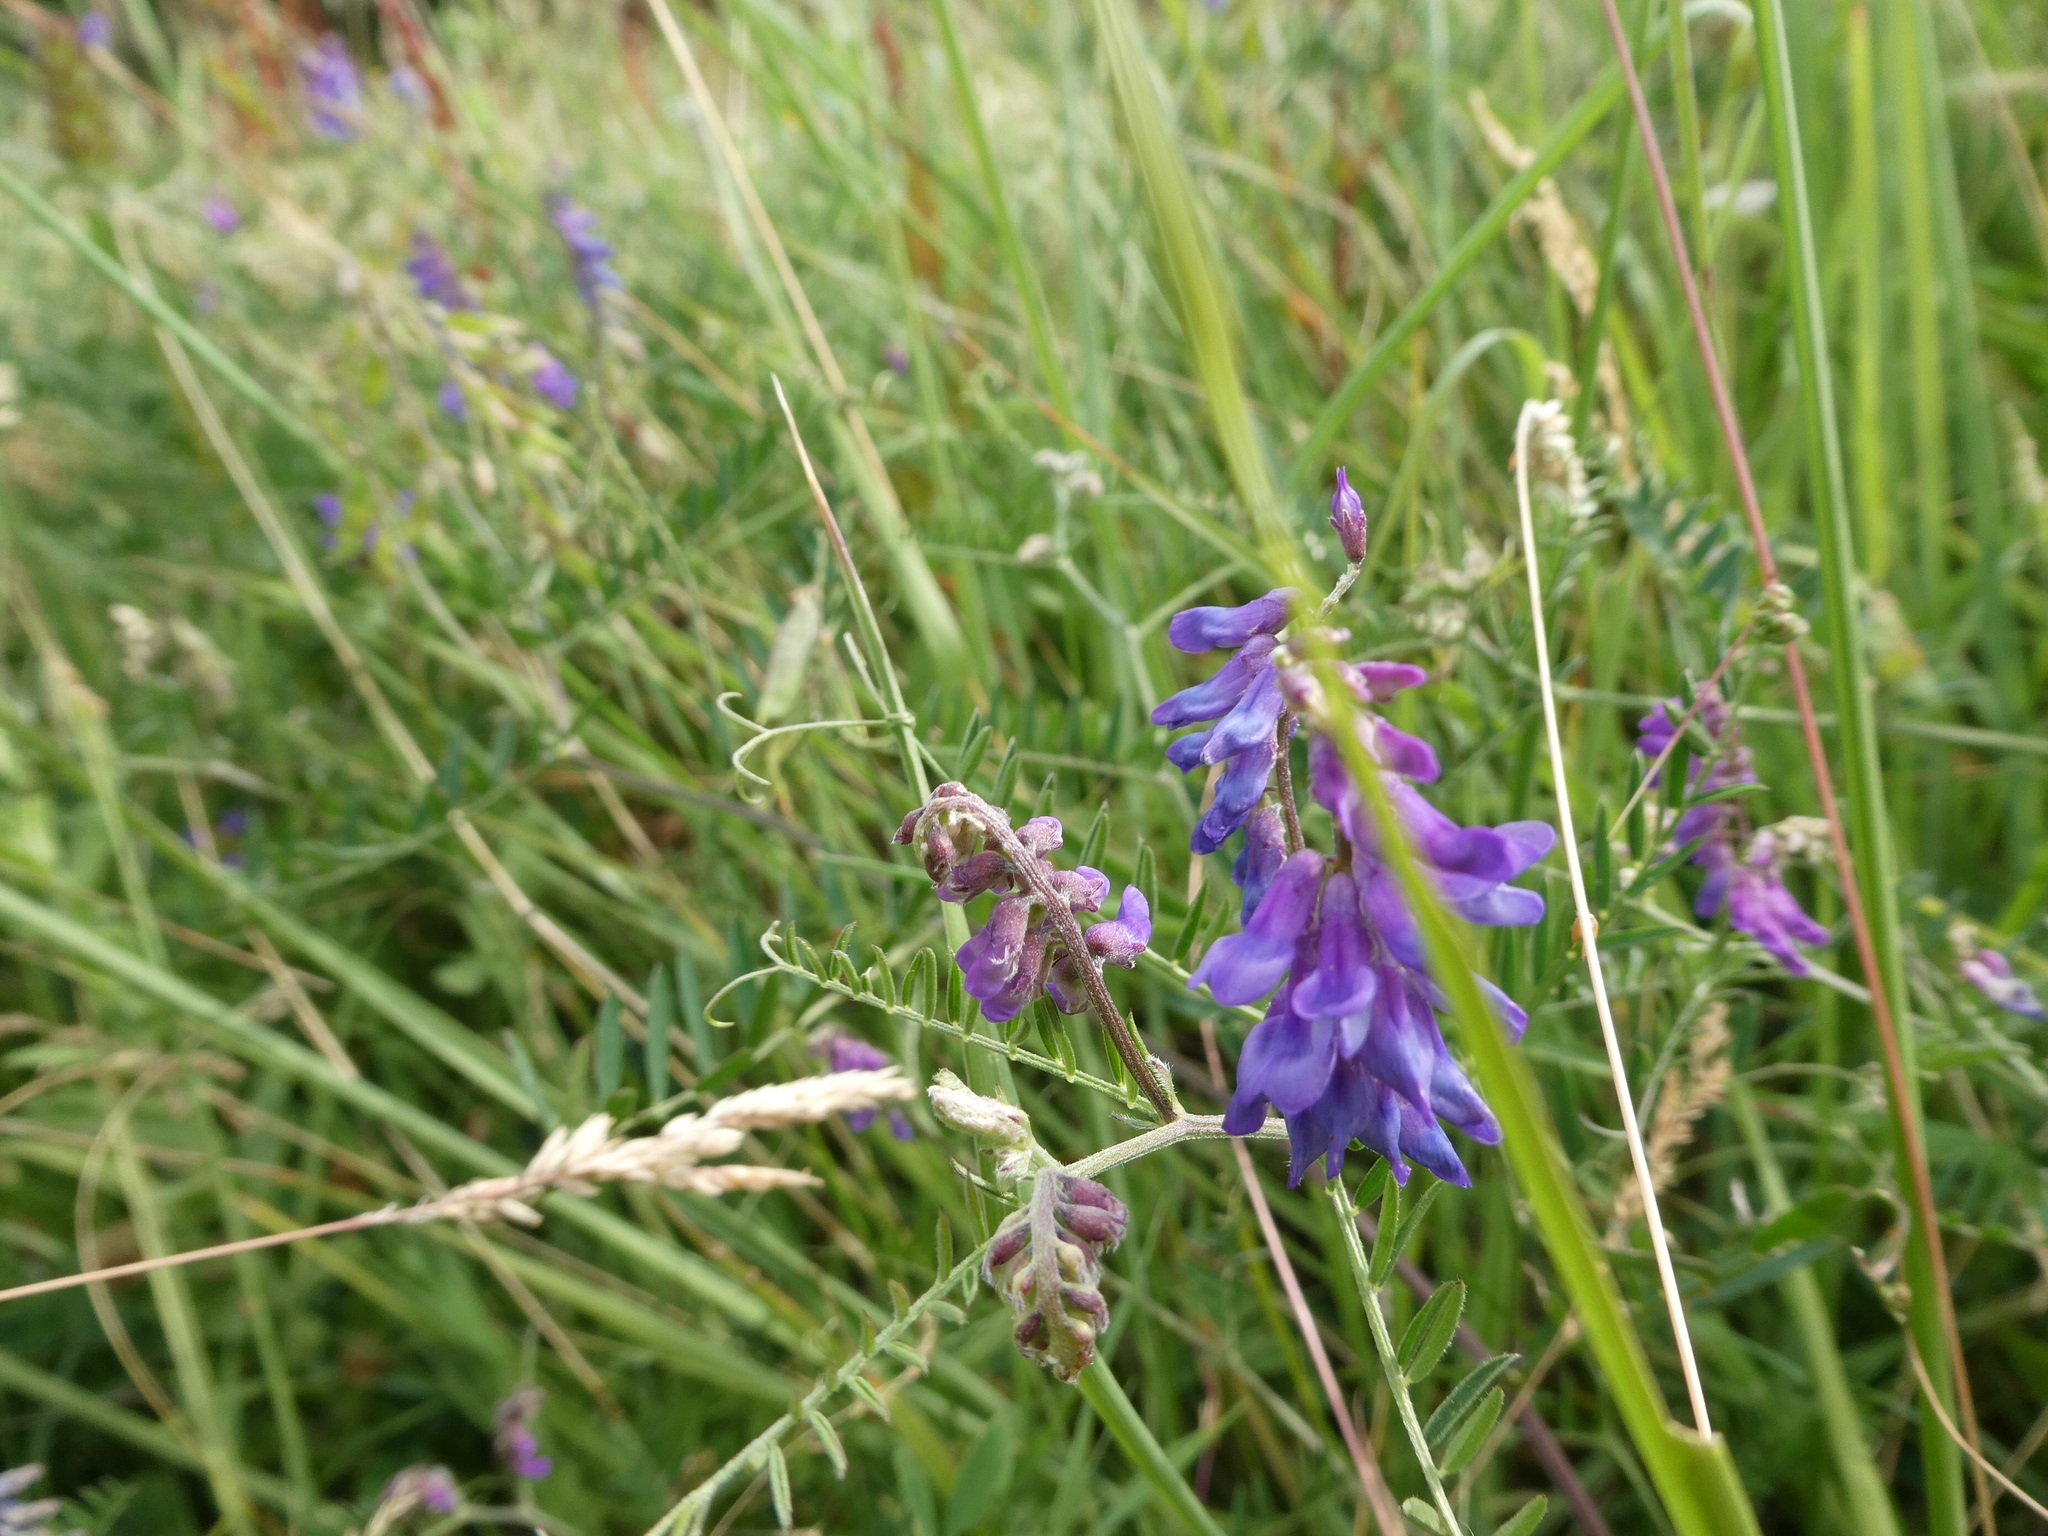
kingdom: Plantae
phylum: Tracheophyta
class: Magnoliopsida
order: Fabales
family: Fabaceae
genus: Vicia
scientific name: Vicia cracca
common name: Bird vetch
